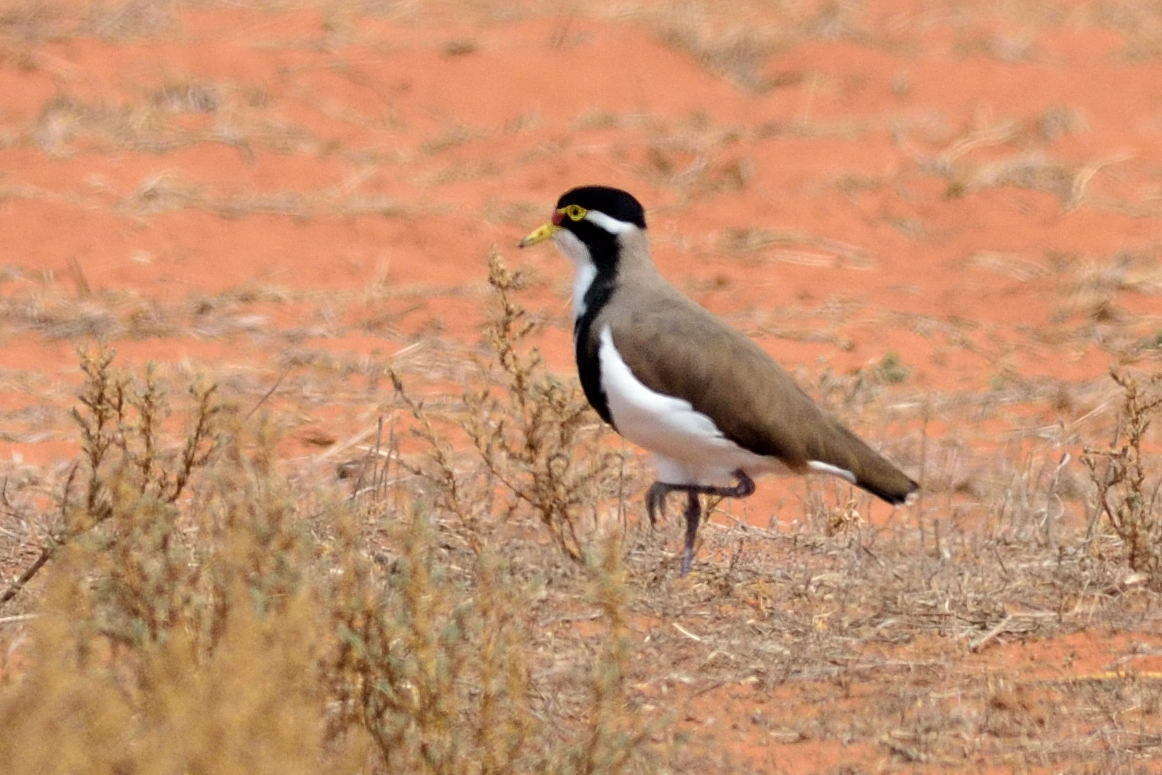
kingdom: Animalia
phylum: Chordata
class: Aves
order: Charadriiformes
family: Charadriidae
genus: Vanellus
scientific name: Vanellus tricolor
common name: Banded lapwing
